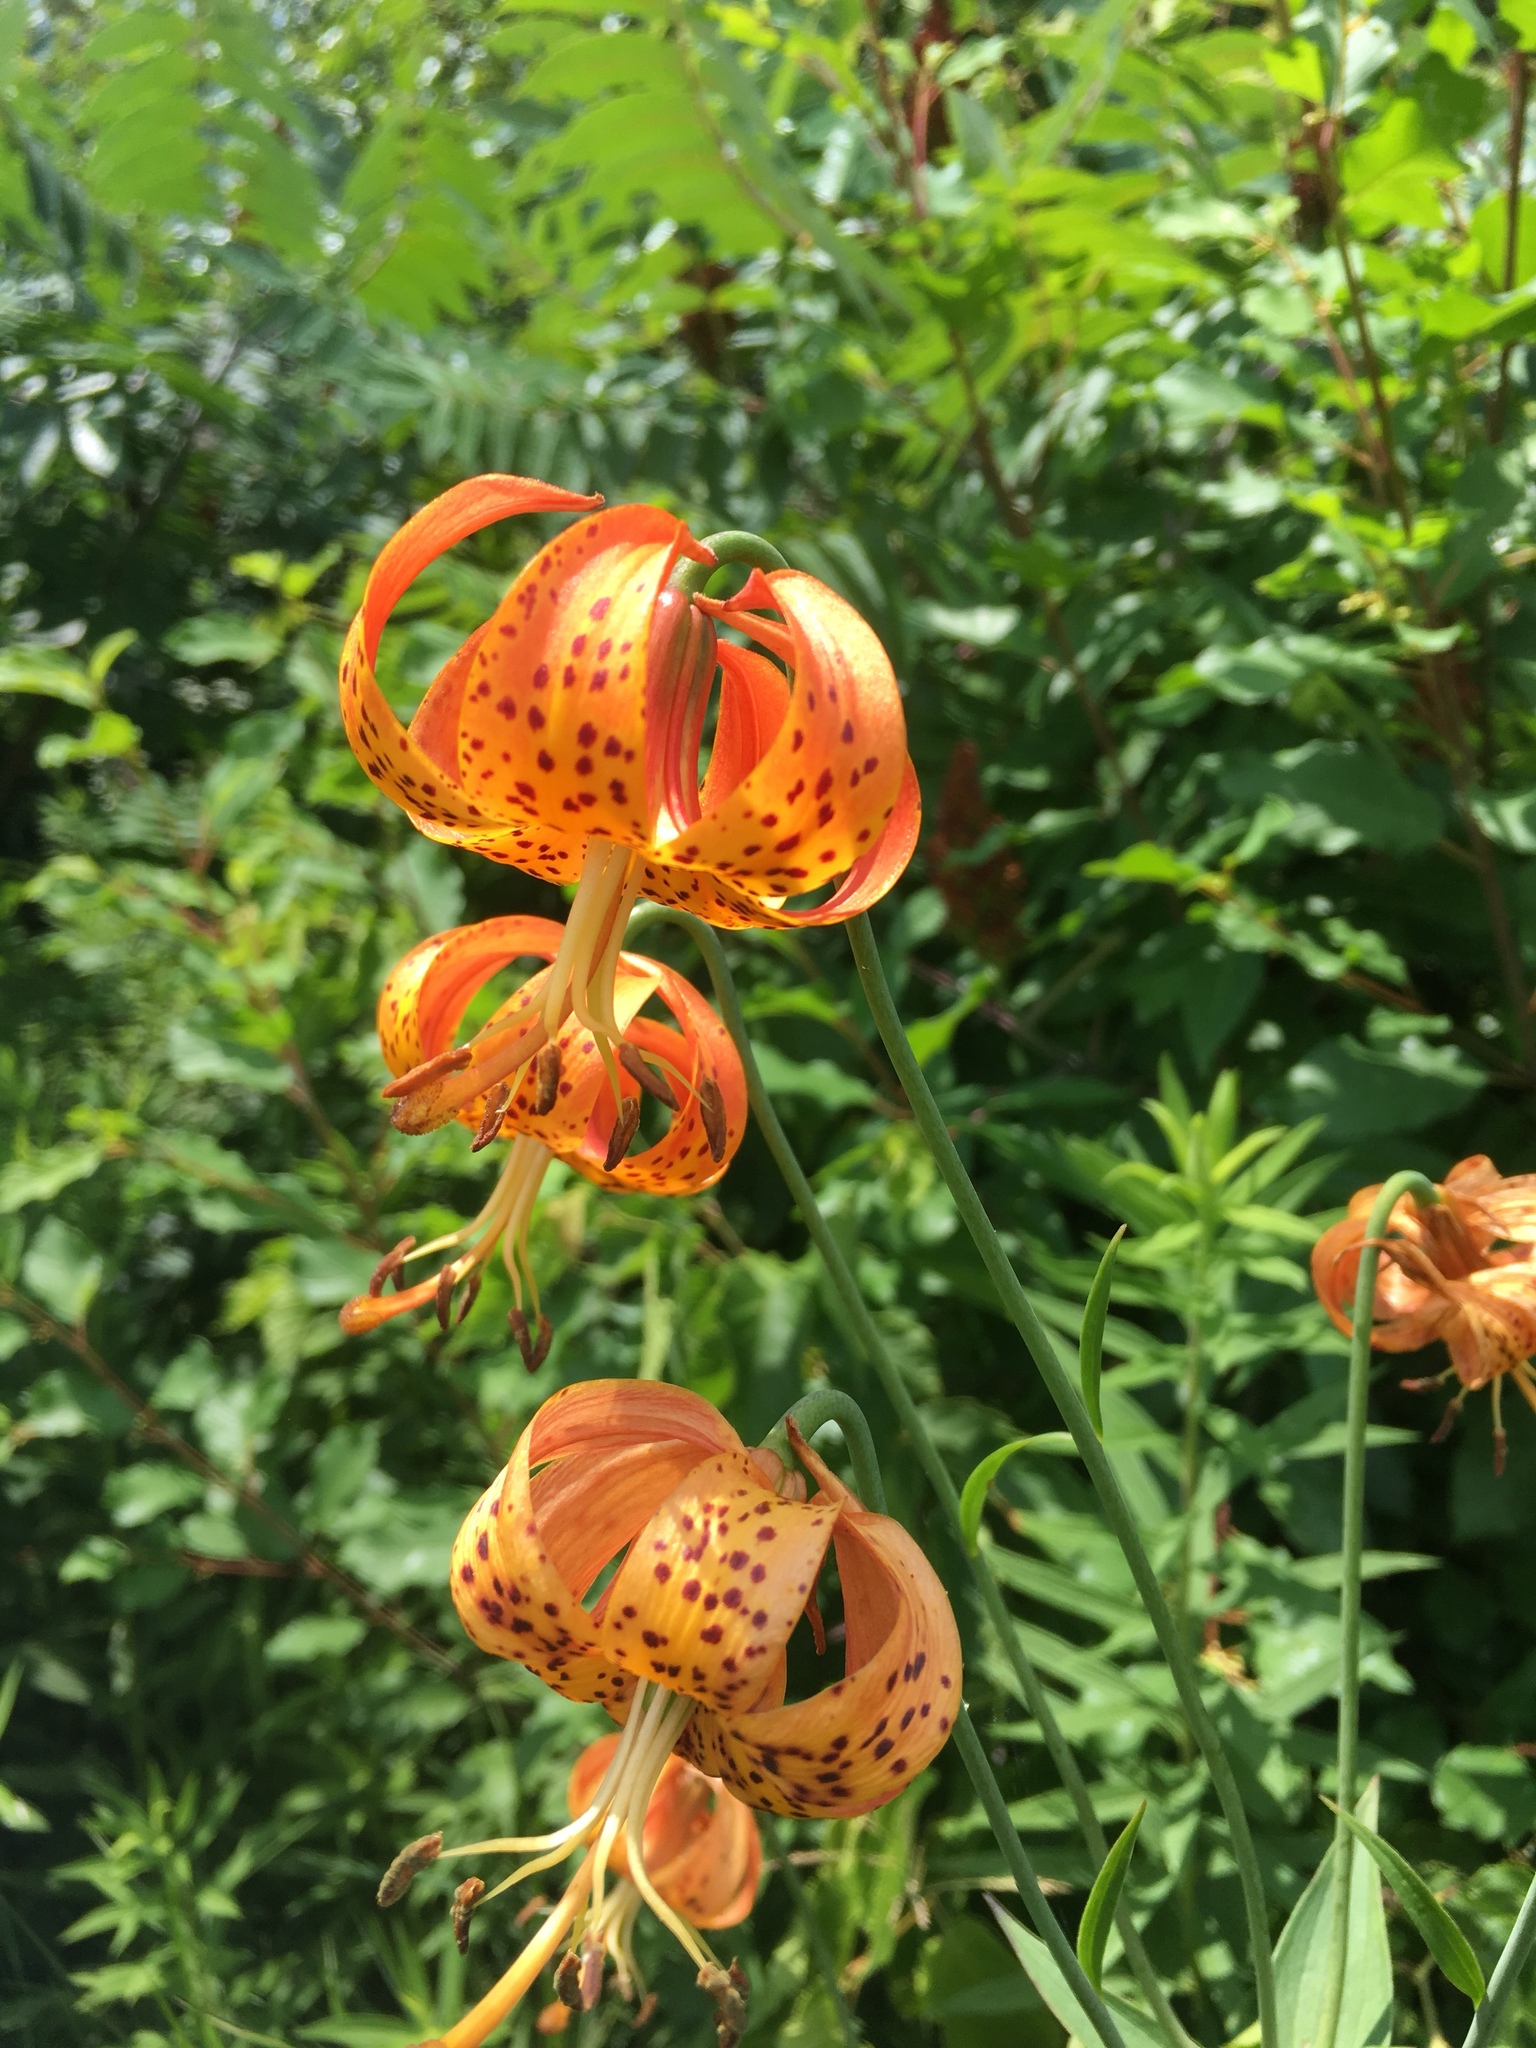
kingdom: Plantae
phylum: Tracheophyta
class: Liliopsida
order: Liliales
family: Liliaceae
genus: Lilium
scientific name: Lilium michiganense
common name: Michigan lily
